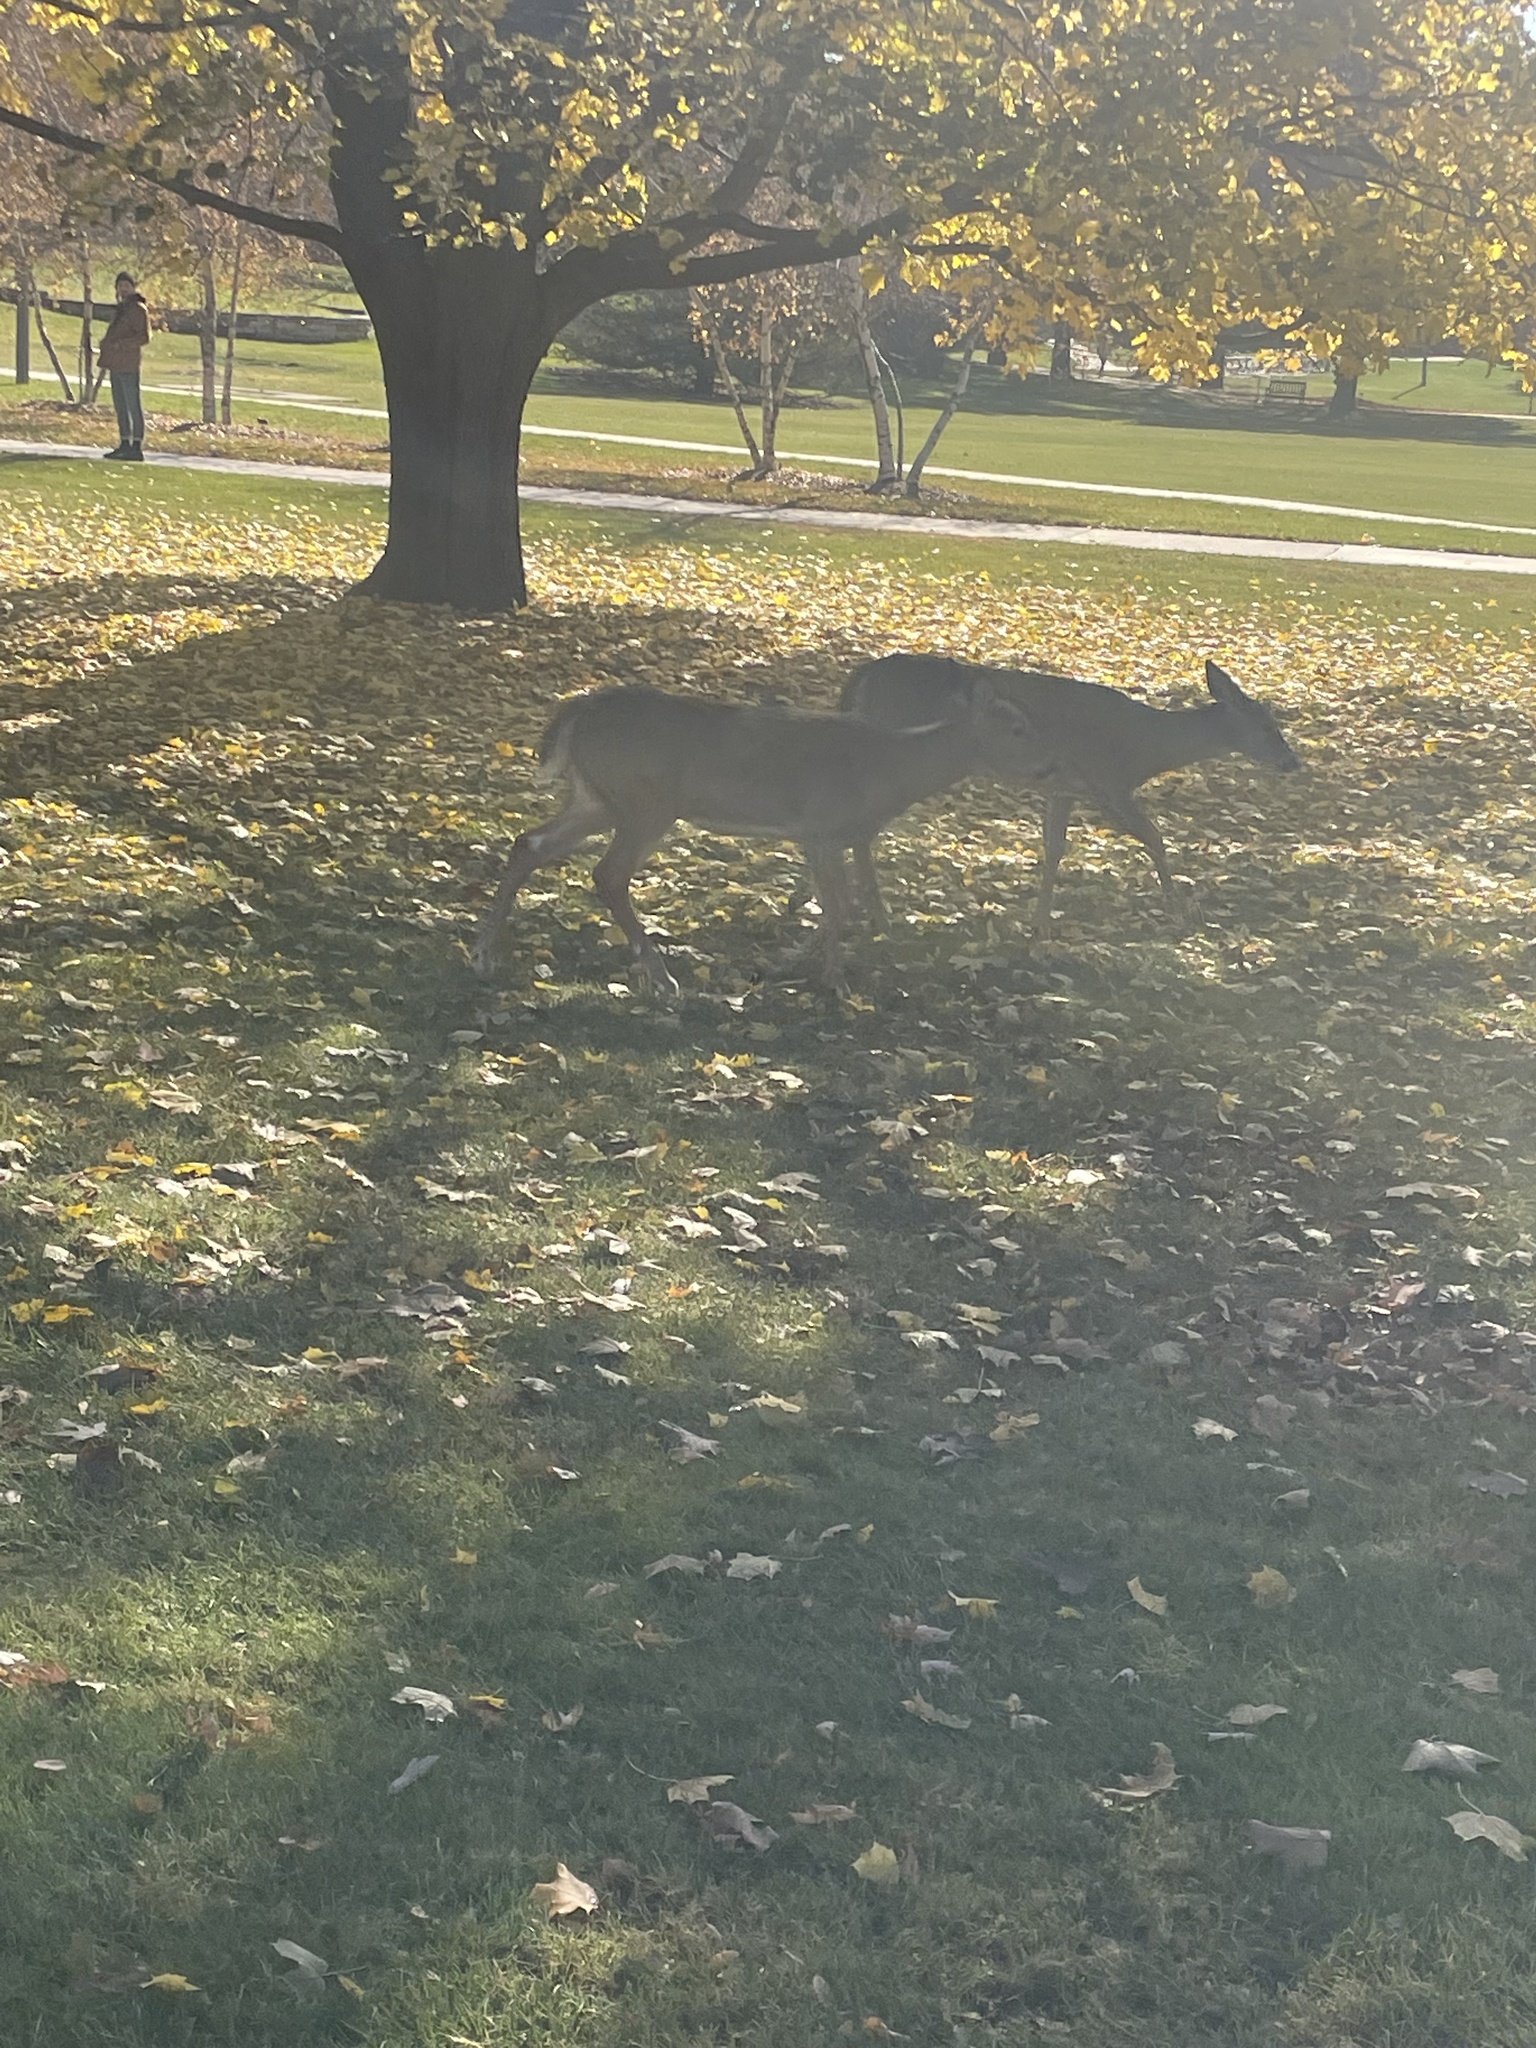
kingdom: Animalia
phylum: Chordata
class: Mammalia
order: Artiodactyla
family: Cervidae
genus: Odocoileus
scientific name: Odocoileus virginianus
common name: White-tailed deer
